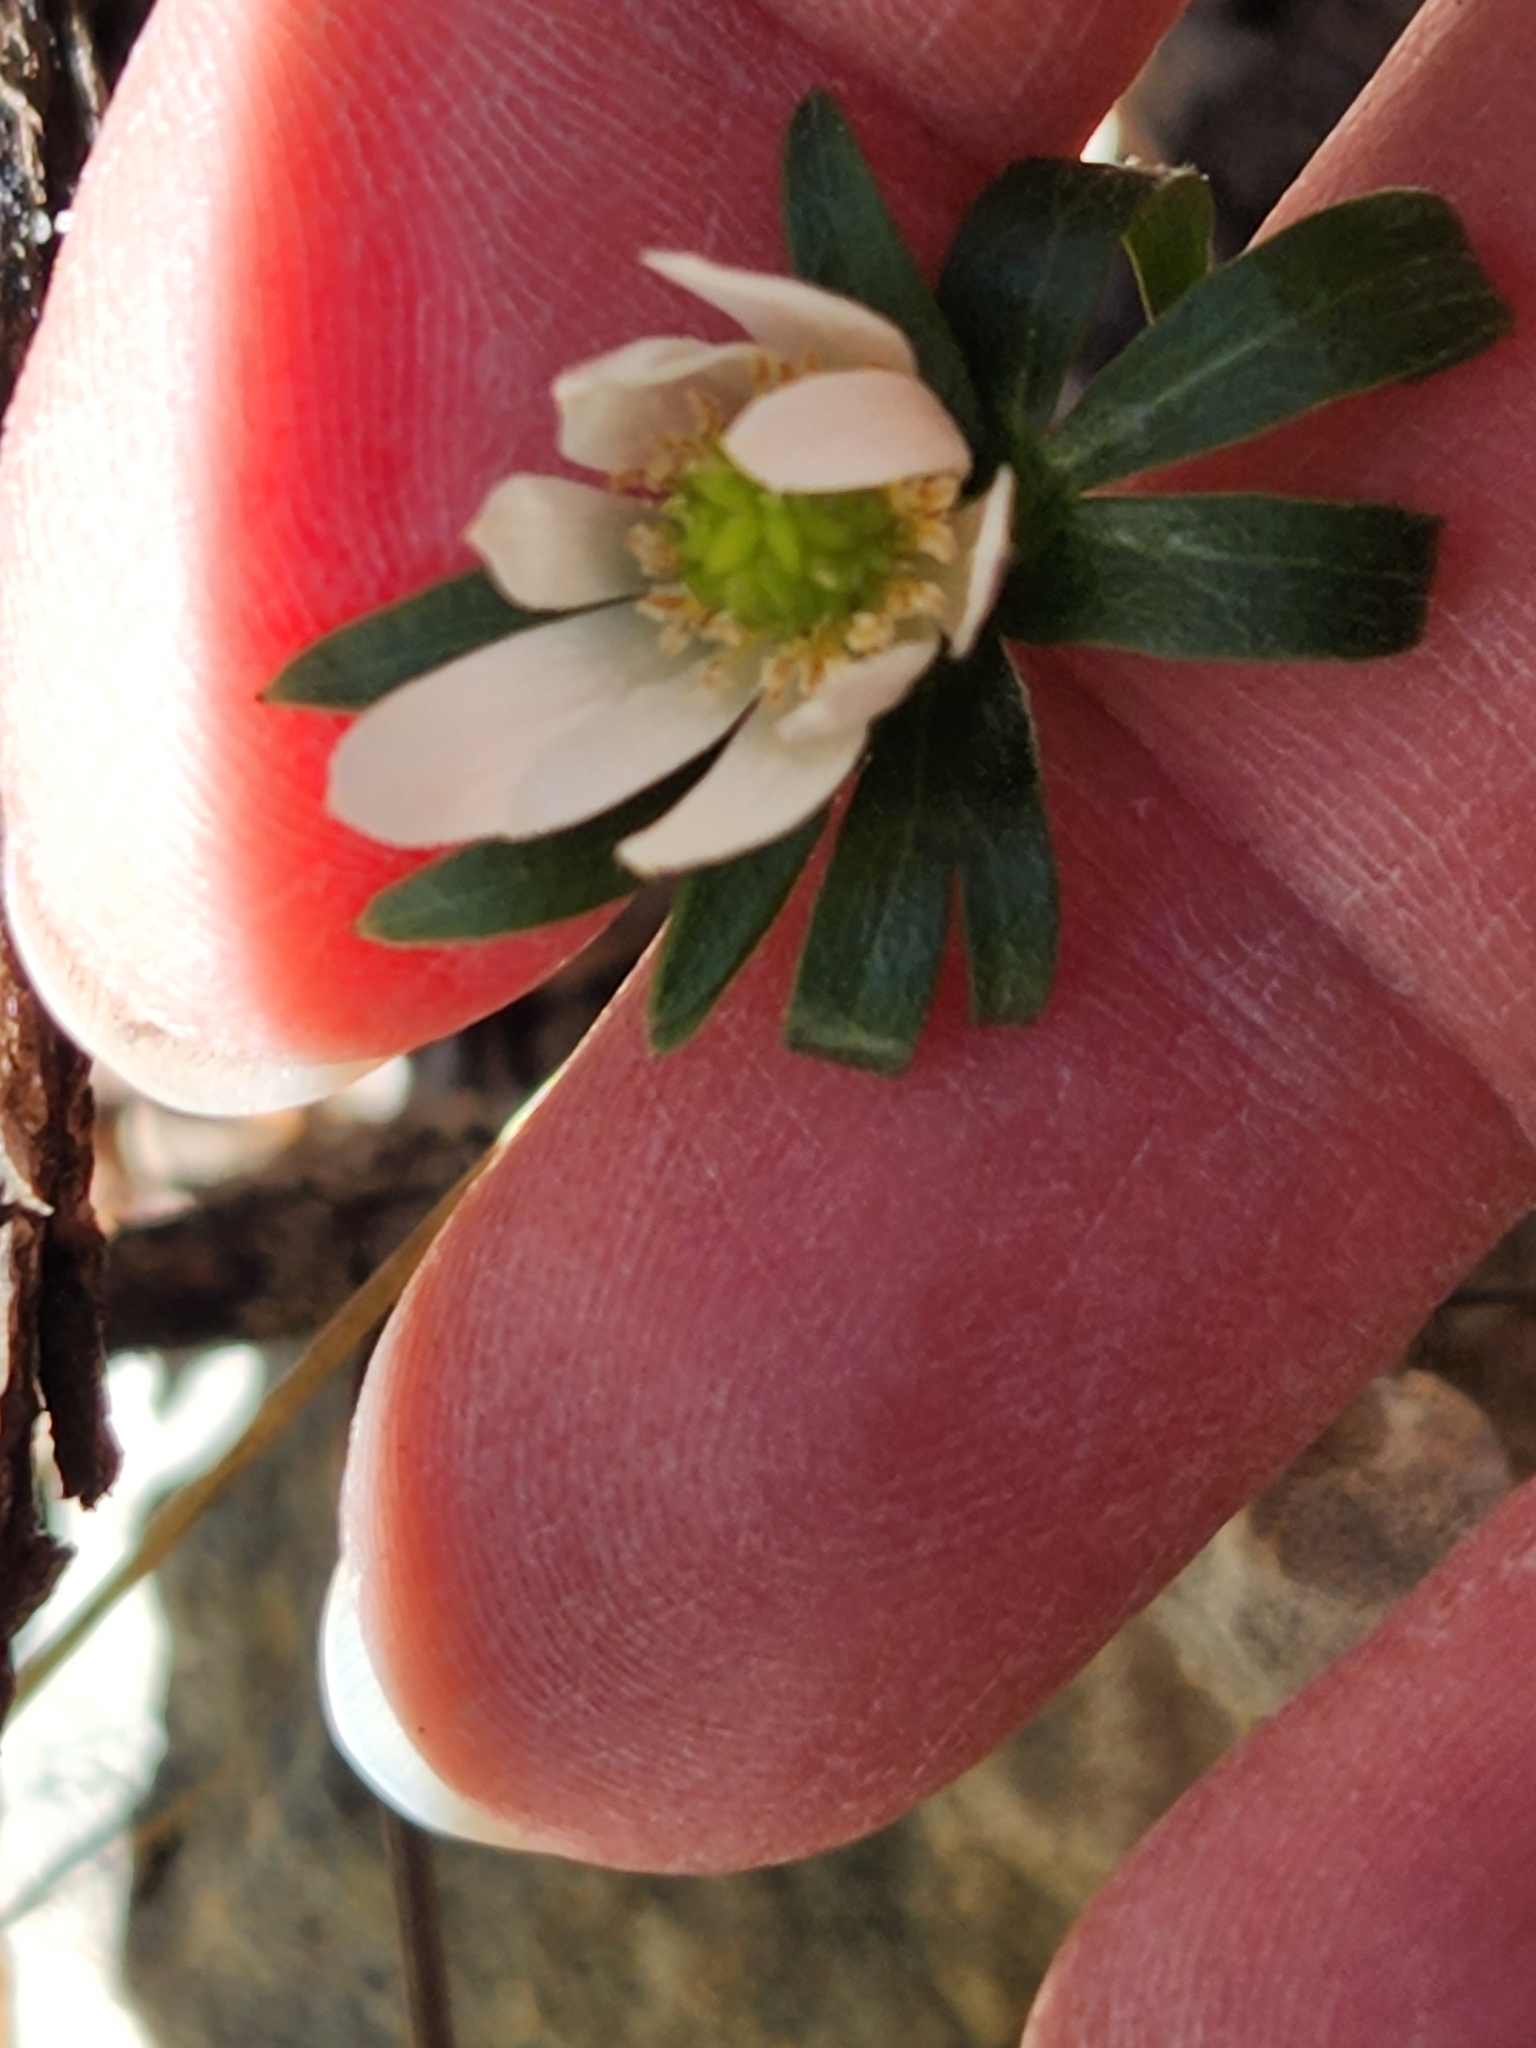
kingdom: Plantae
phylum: Tracheophyta
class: Magnoliopsida
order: Ranunculales
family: Ranunculaceae
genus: Anemone
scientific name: Anemone edwardsiana
